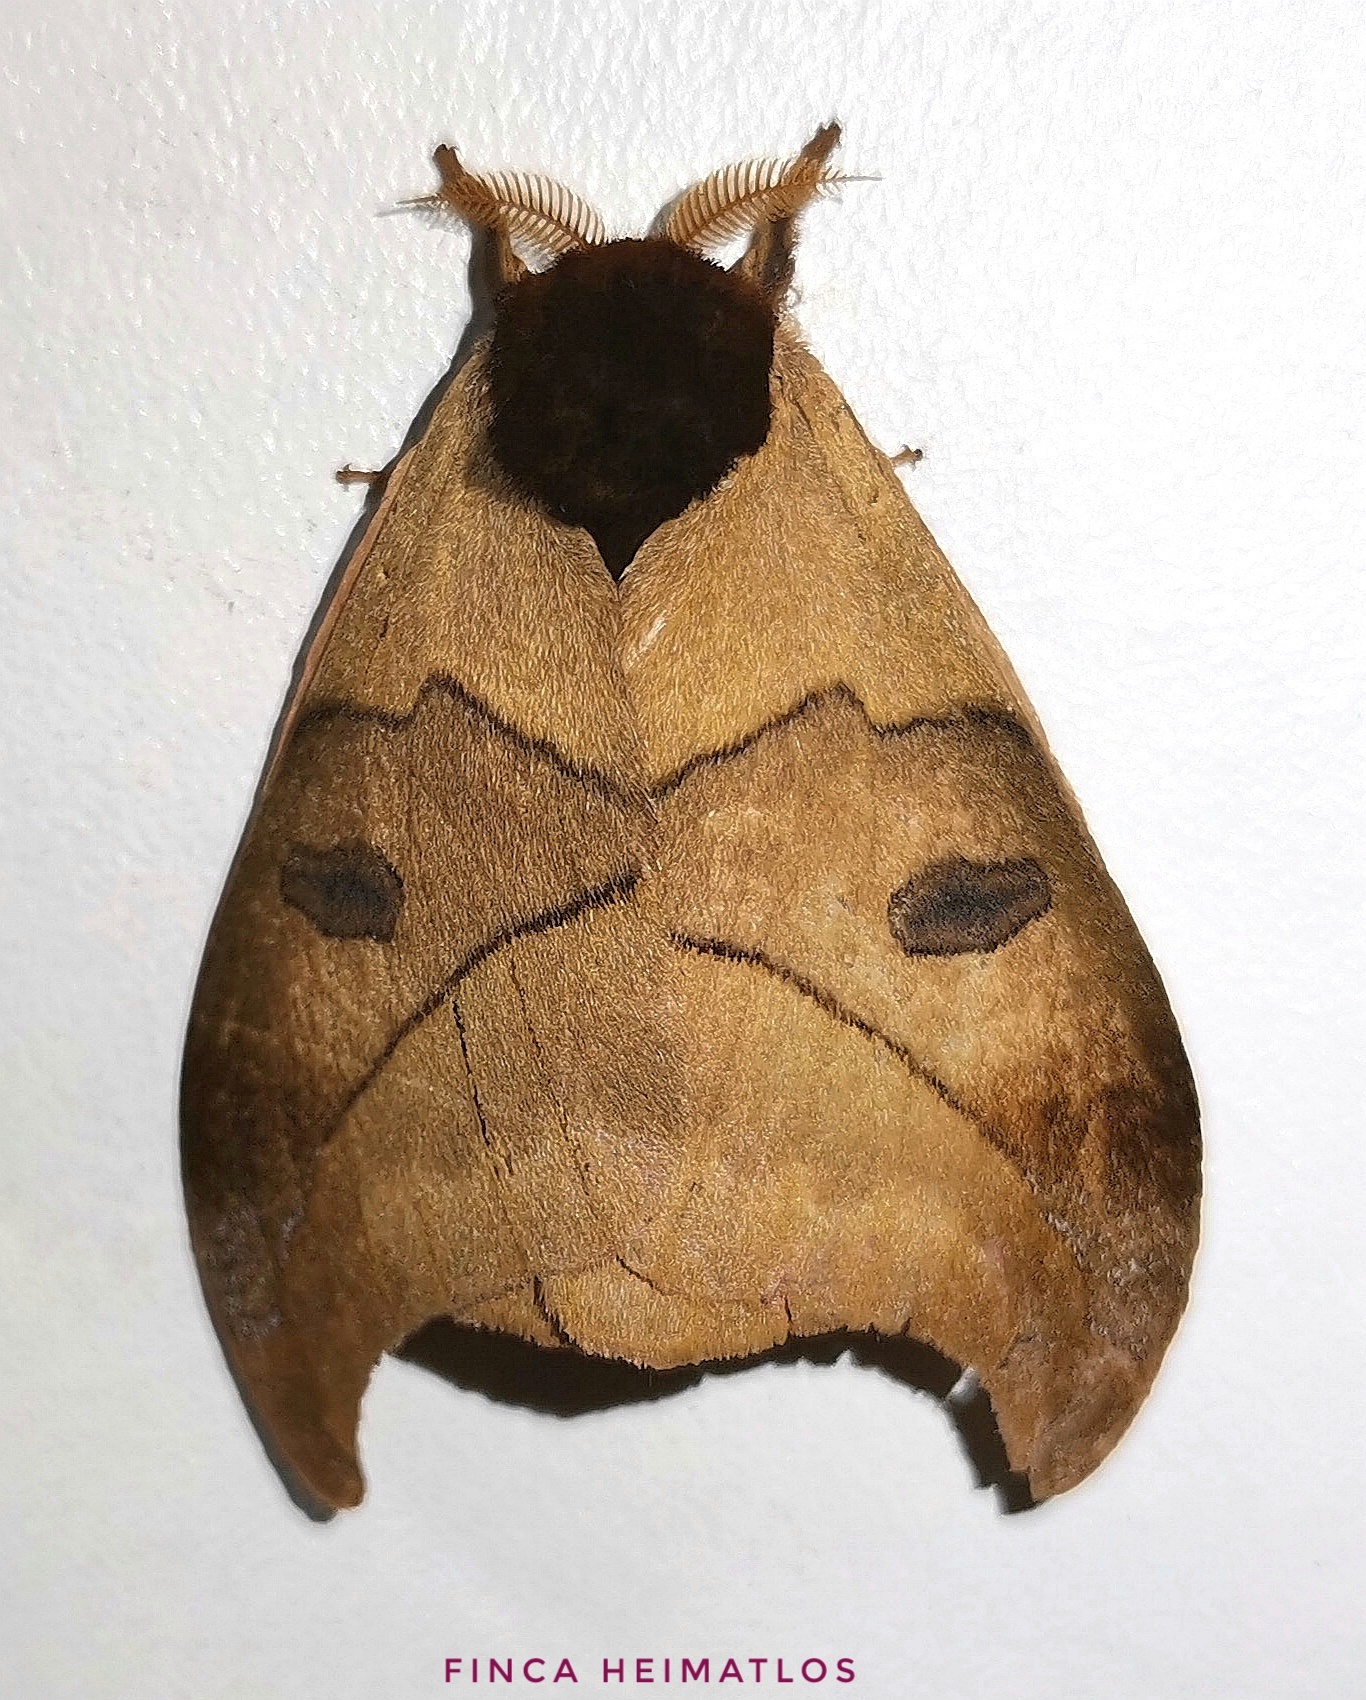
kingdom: Animalia
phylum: Arthropoda
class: Insecta
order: Lepidoptera
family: Saturniidae
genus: Automeris
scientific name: Automeris hamata
